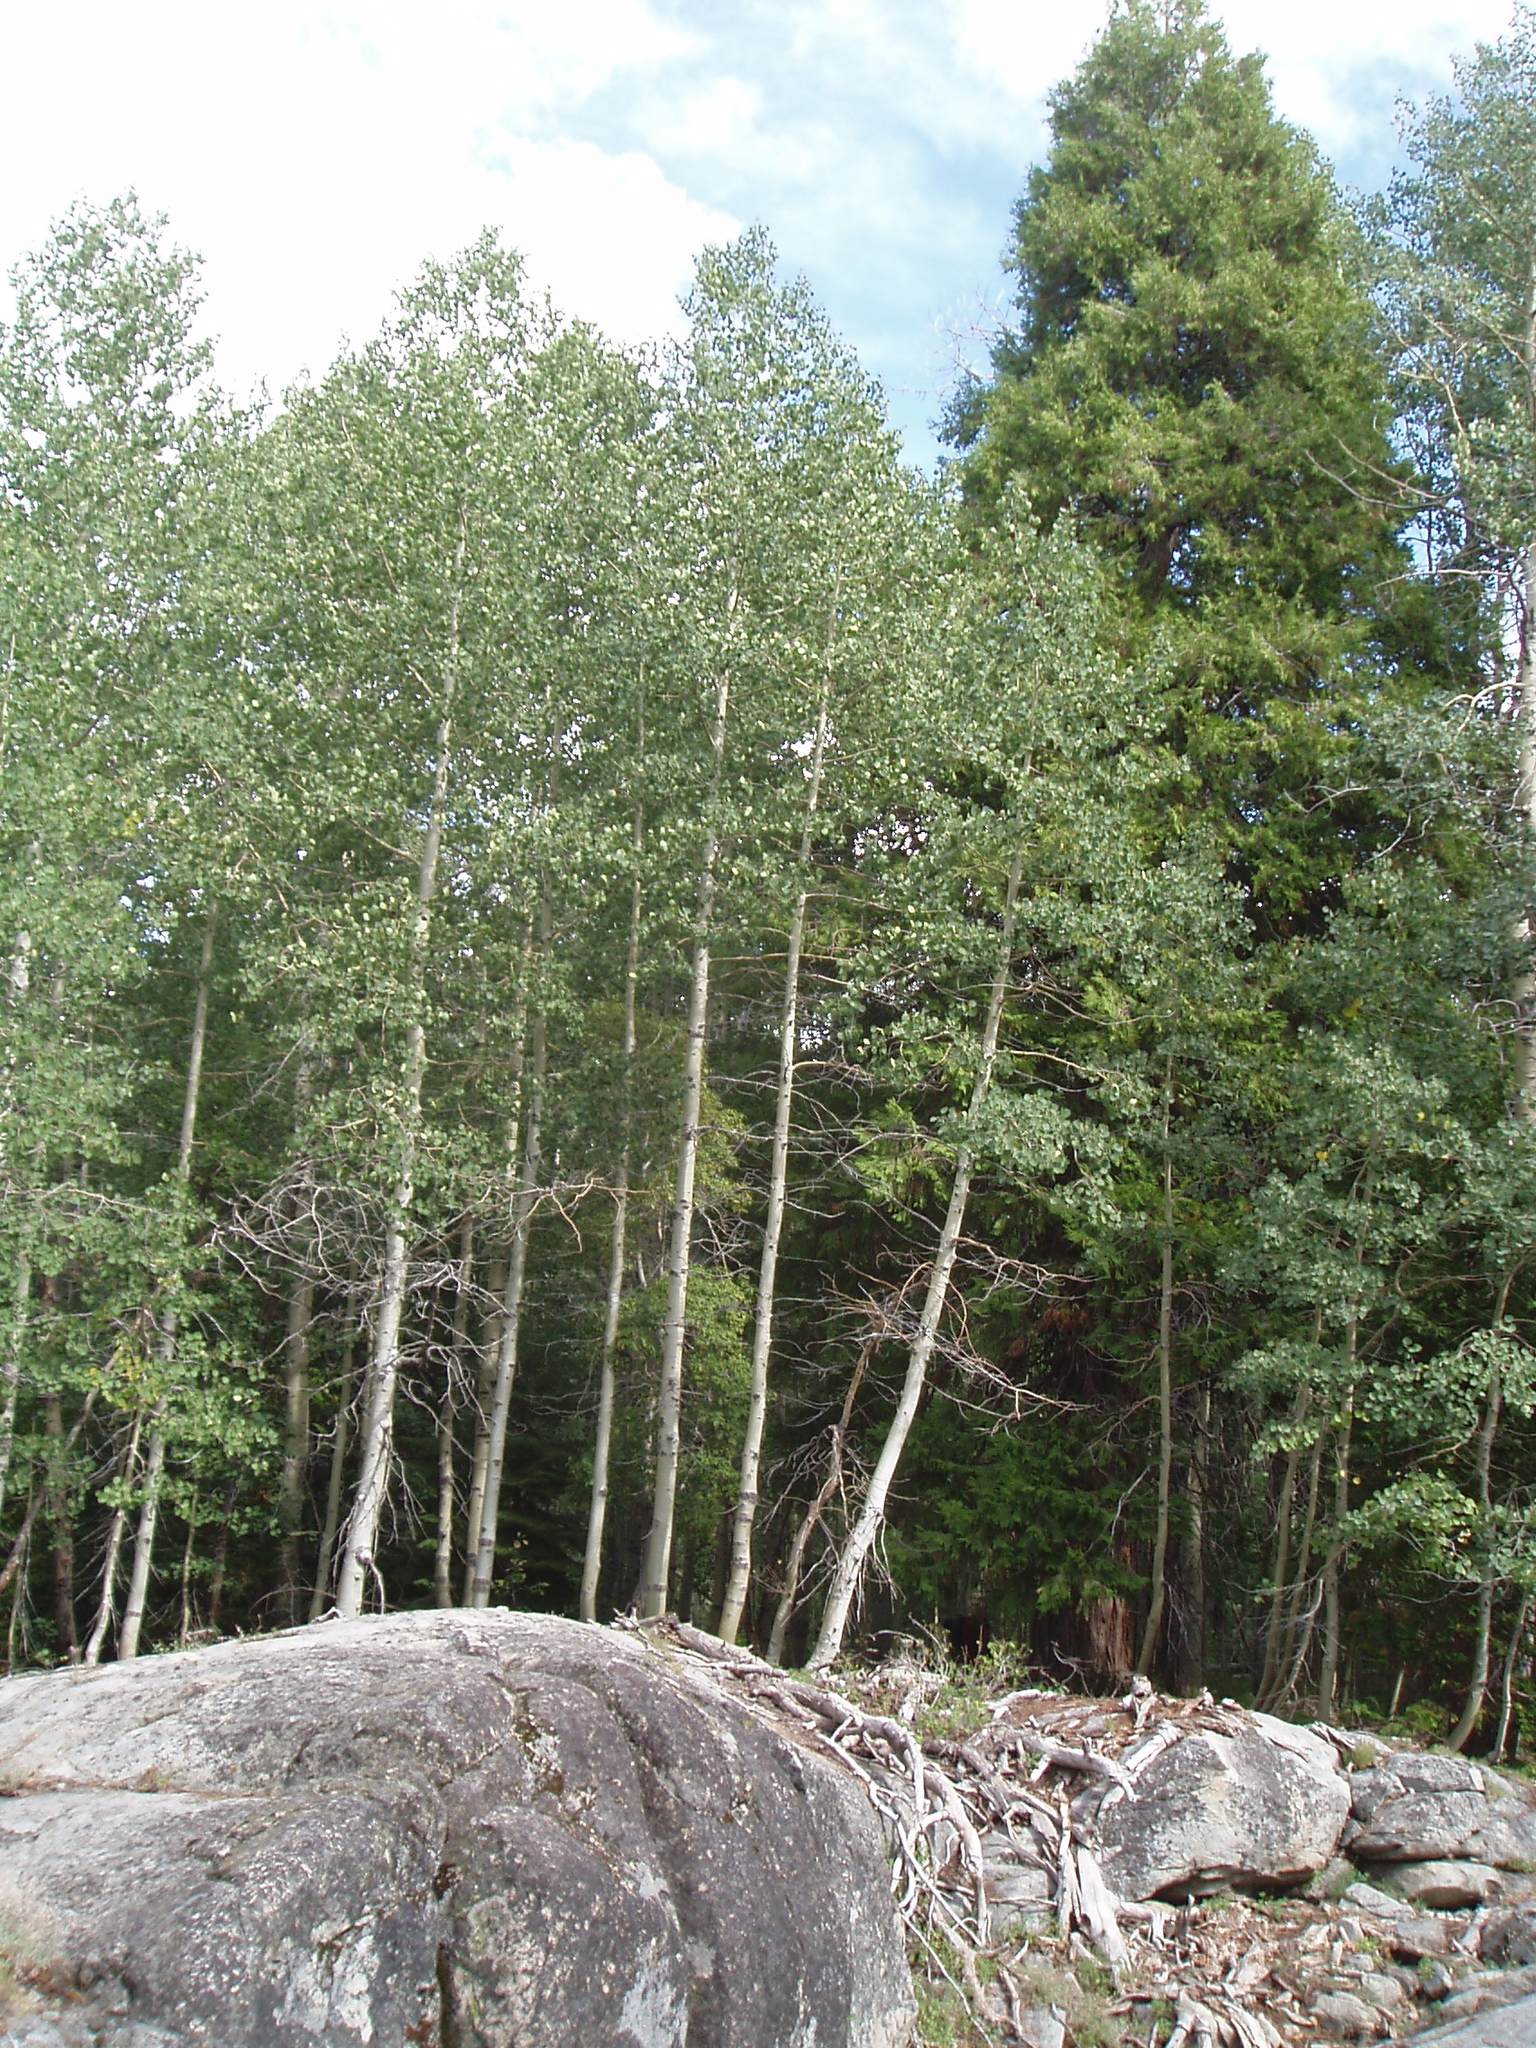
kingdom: Plantae
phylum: Tracheophyta
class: Magnoliopsida
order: Malpighiales
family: Salicaceae
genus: Populus
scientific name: Populus tremuloides
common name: Quaking aspen
